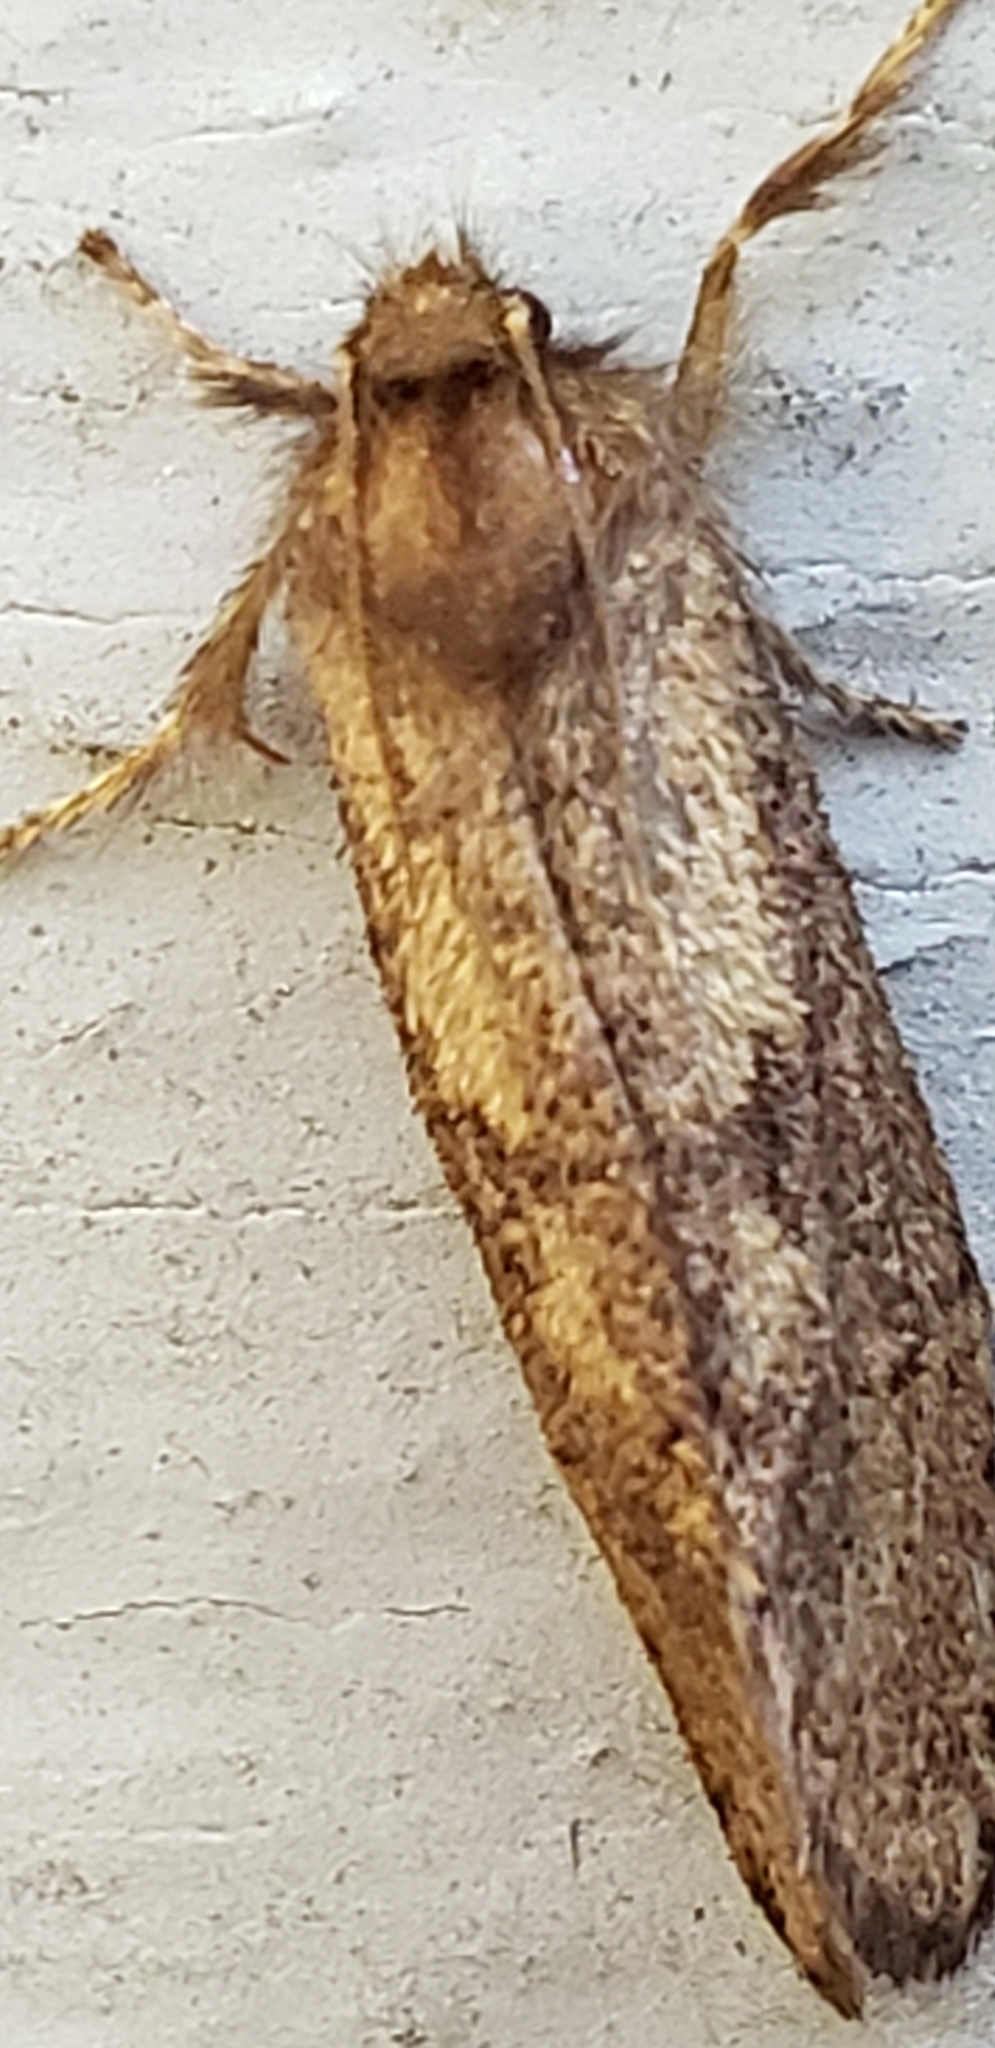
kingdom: Animalia
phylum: Arthropoda
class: Insecta
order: Lepidoptera
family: Tineidae
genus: Acrolophus
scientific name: Acrolophus mora
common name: Dark acrolophus
